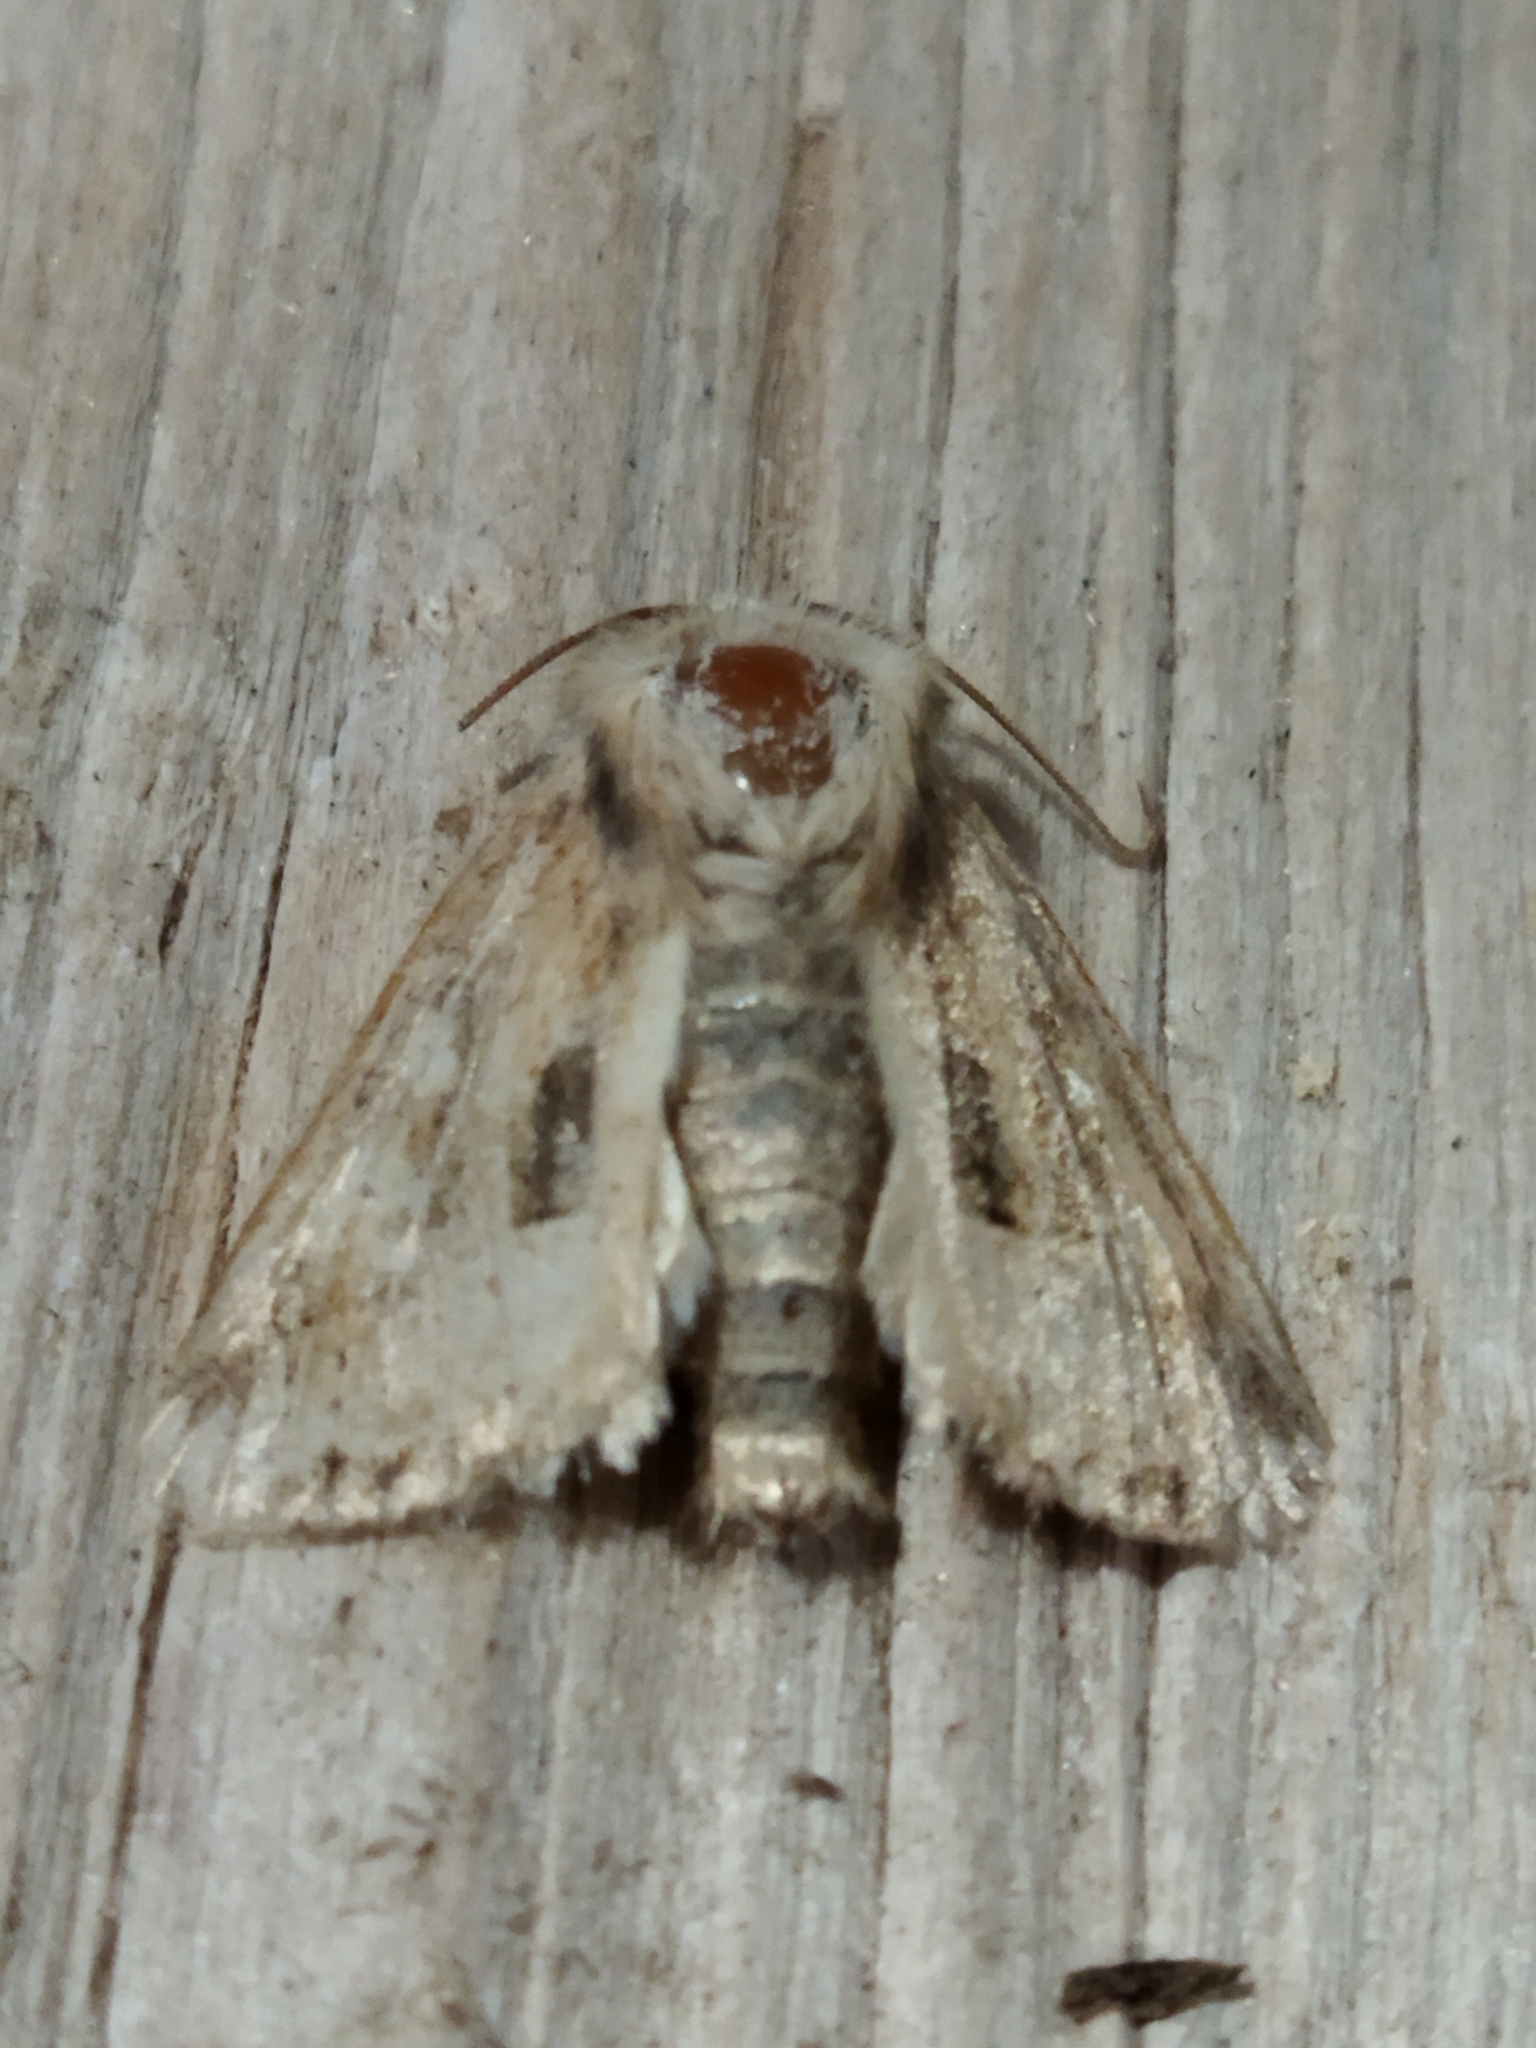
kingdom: Animalia
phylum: Arthropoda
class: Insecta
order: Lepidoptera
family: Noctuidae
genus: Luperina
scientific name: Luperina dumerilii
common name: Dumeril's rustic
